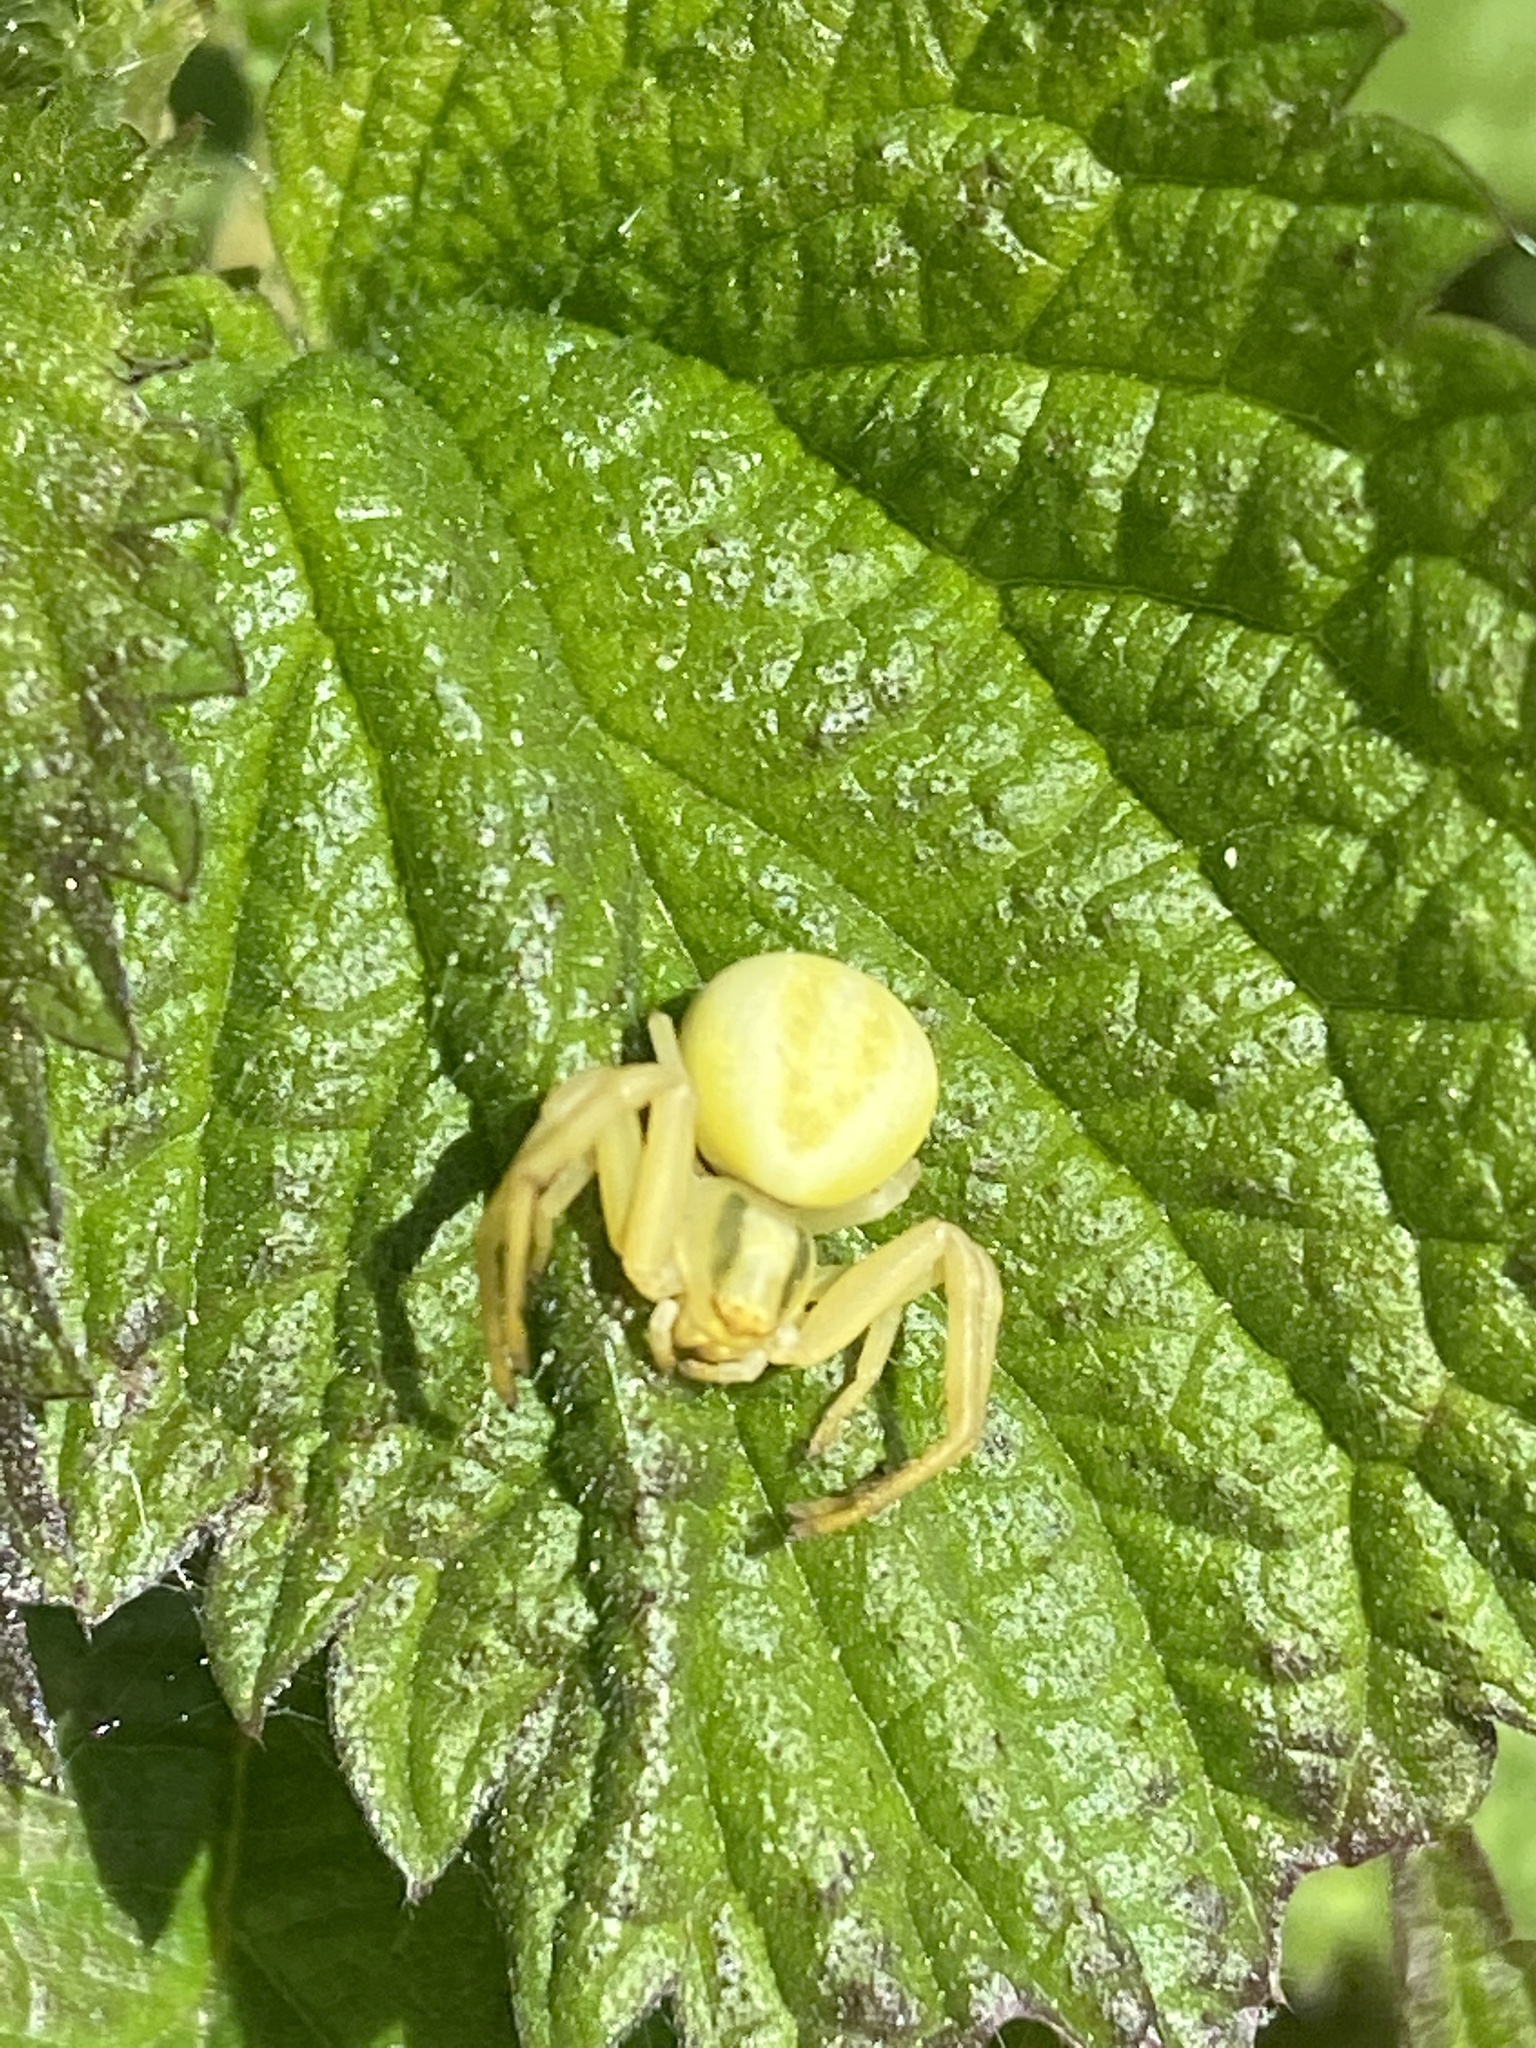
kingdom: Animalia
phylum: Arthropoda
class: Arachnida
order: Araneae
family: Thomisidae
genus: Misumena
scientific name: Misumena vatia
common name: Goldenrod crab spider
